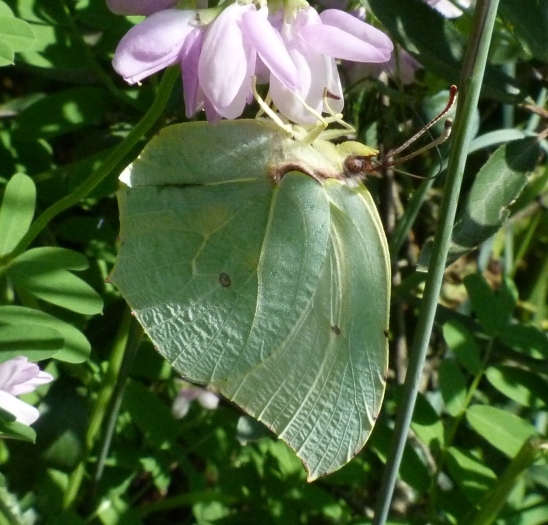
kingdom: Animalia
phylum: Arthropoda
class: Insecta
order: Lepidoptera
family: Pieridae
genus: Gonepteryx
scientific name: Gonepteryx rhamni
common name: Brimstone
